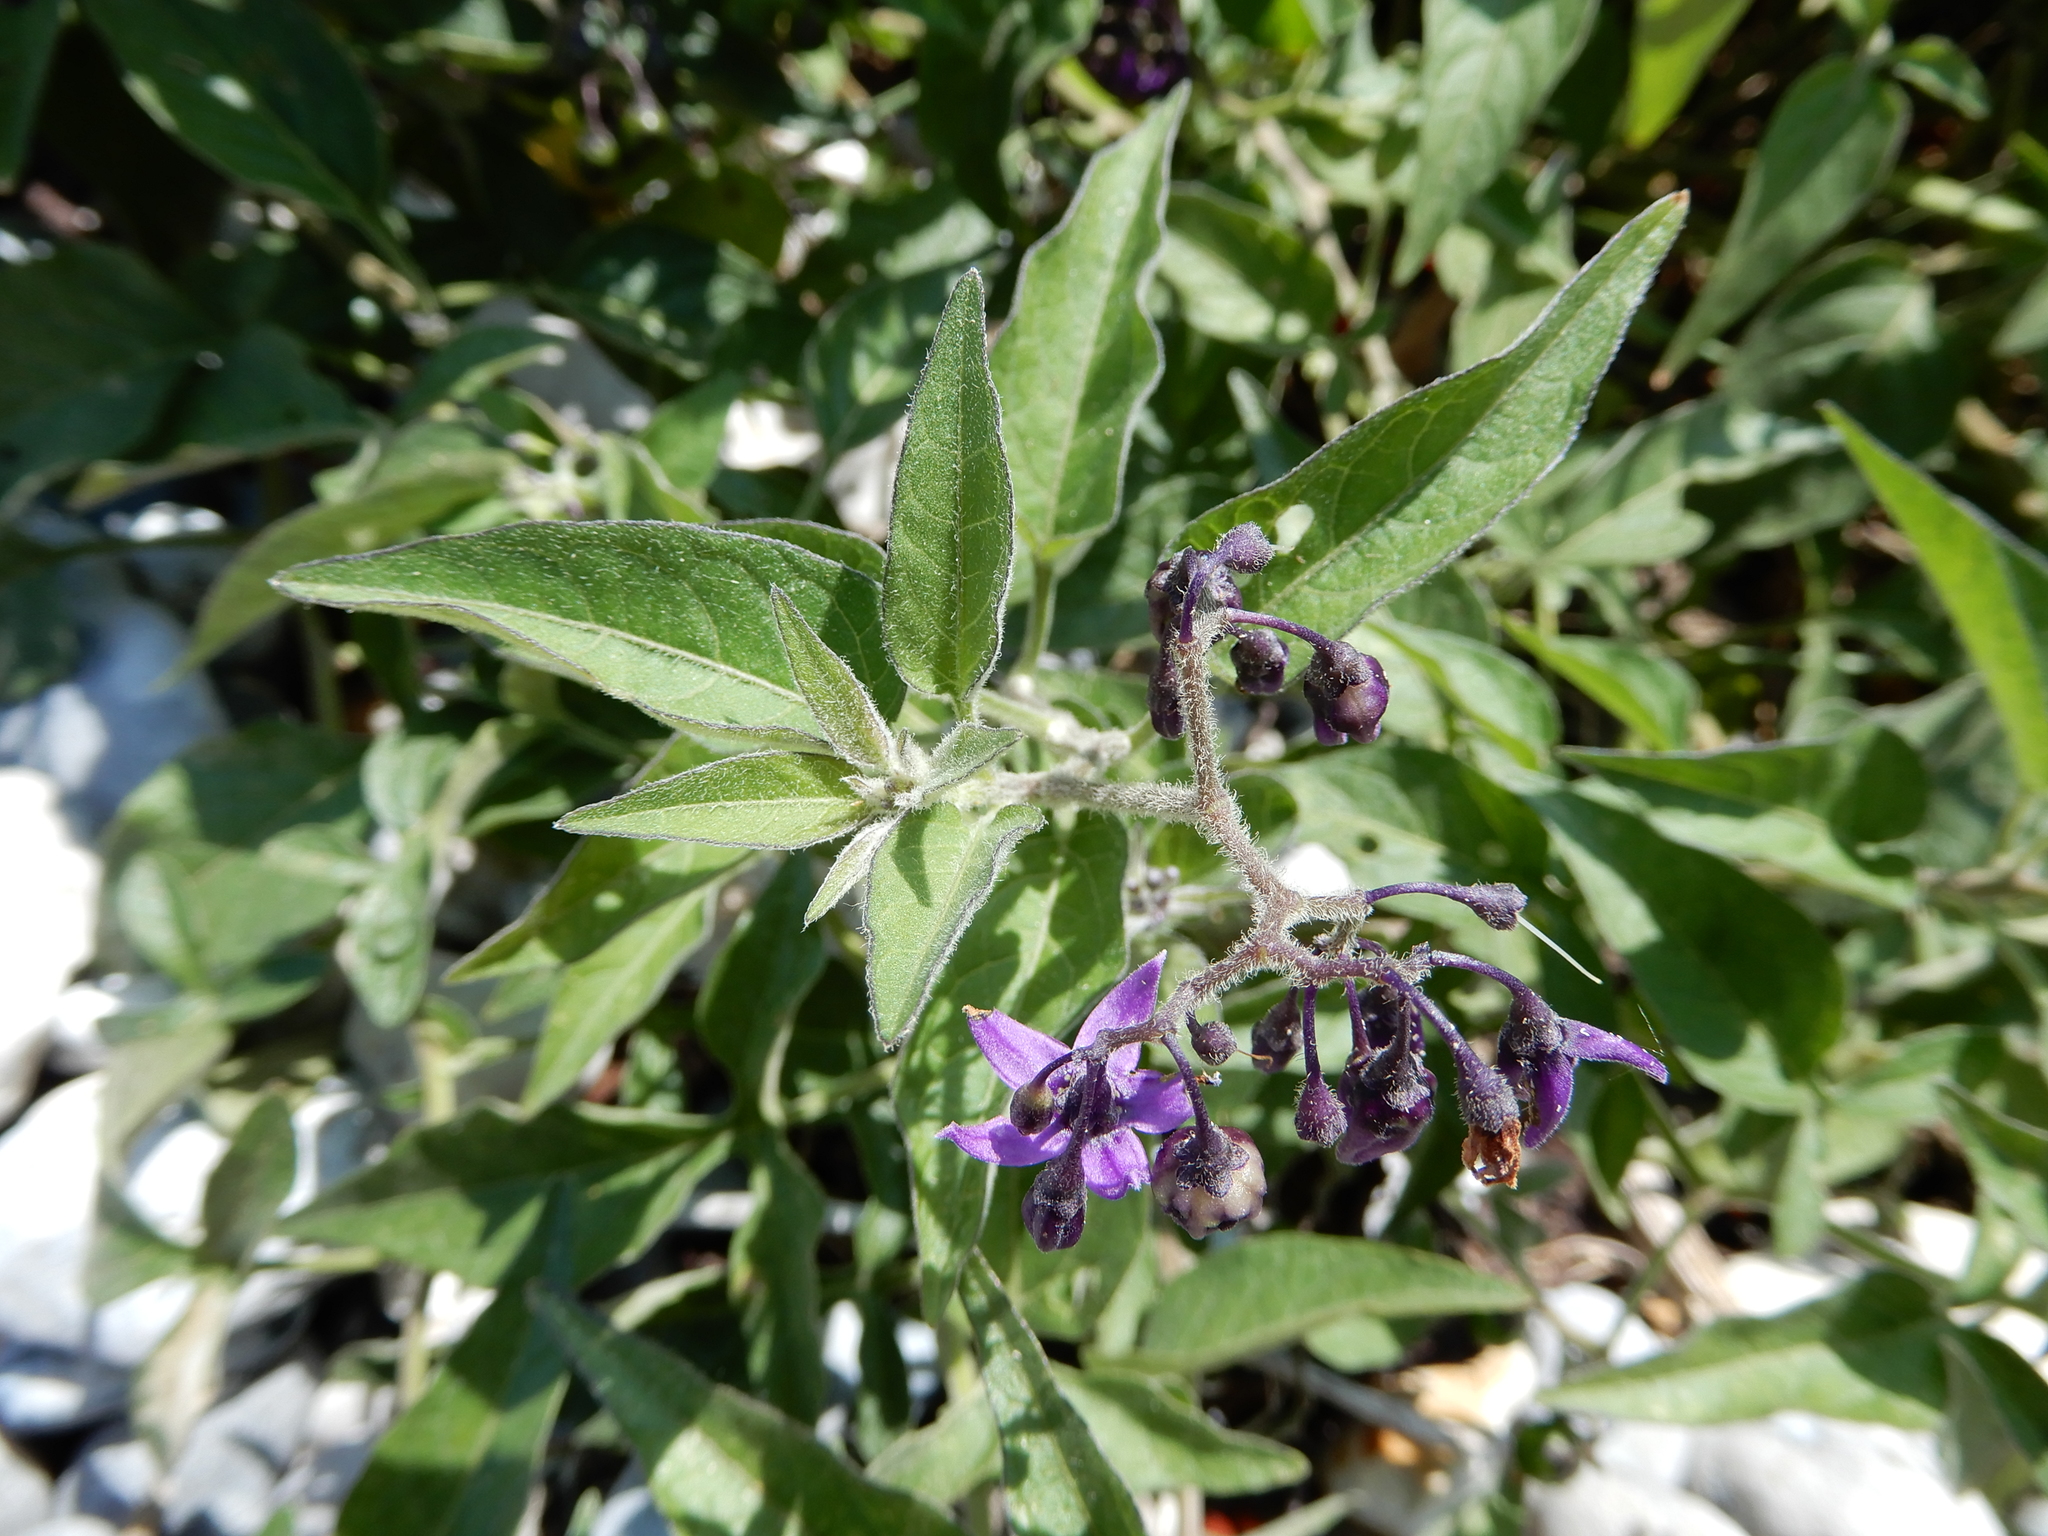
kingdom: Plantae
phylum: Tracheophyta
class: Magnoliopsida
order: Solanales
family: Solanaceae
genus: Solanum
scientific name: Solanum dulcamara
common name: Climbing nightshade
